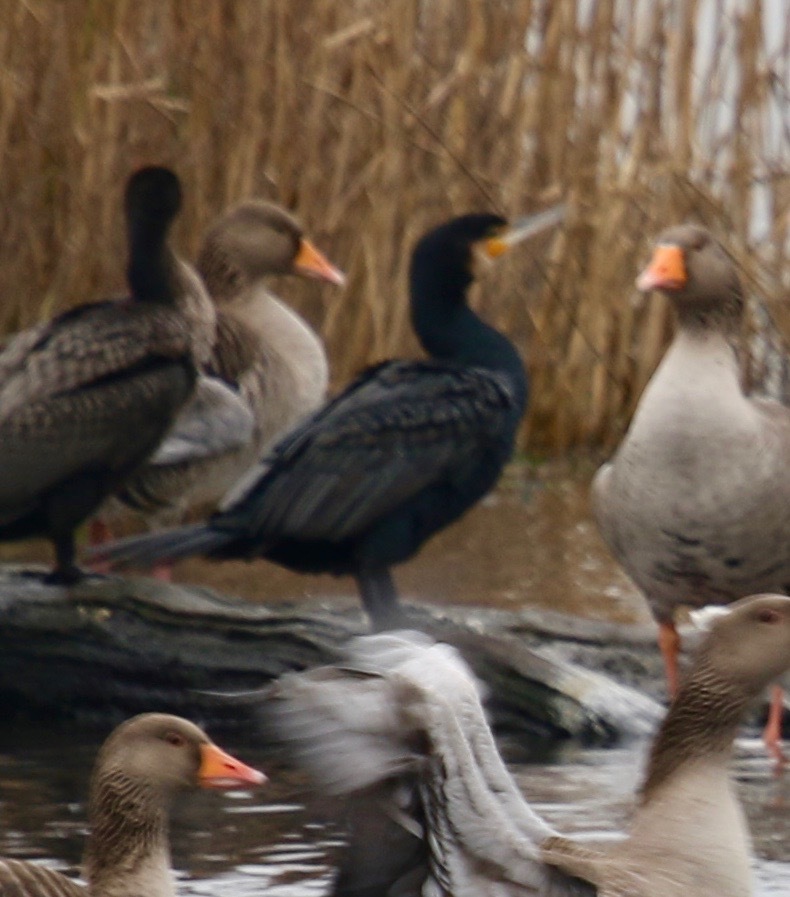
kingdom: Animalia
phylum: Chordata
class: Aves
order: Suliformes
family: Phalacrocoracidae
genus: Phalacrocorax
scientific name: Phalacrocorax carbo
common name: Great cormorant
